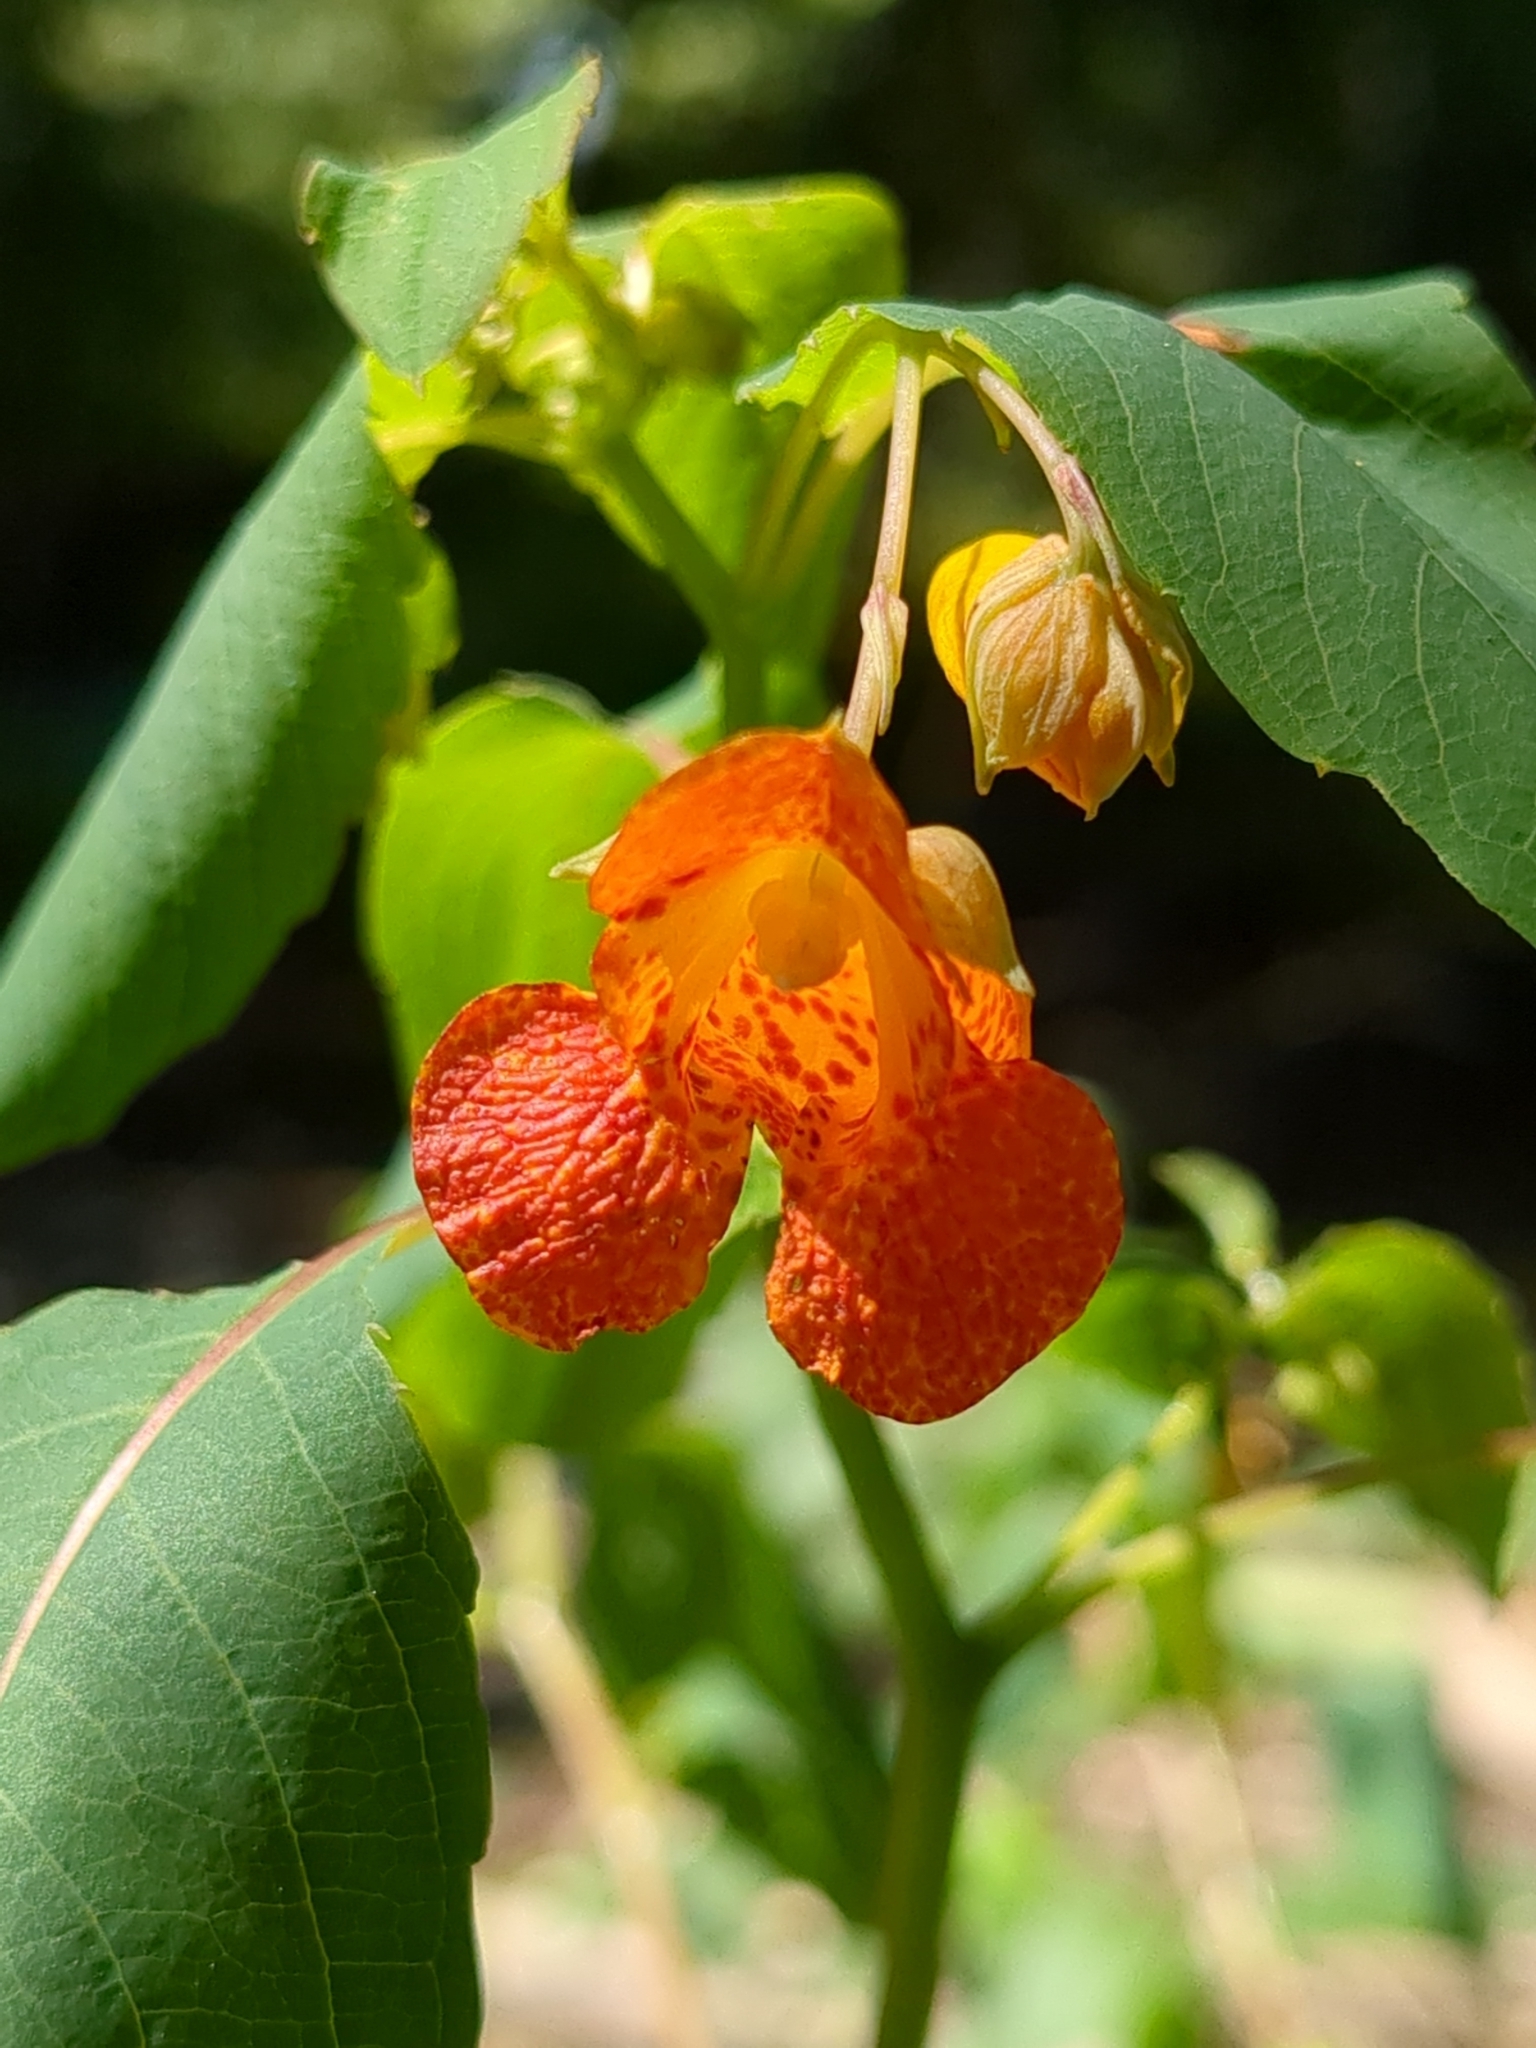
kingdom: Plantae
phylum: Tracheophyta
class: Magnoliopsida
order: Ericales
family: Balsaminaceae
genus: Impatiens
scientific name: Impatiens capensis
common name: Orange balsam
